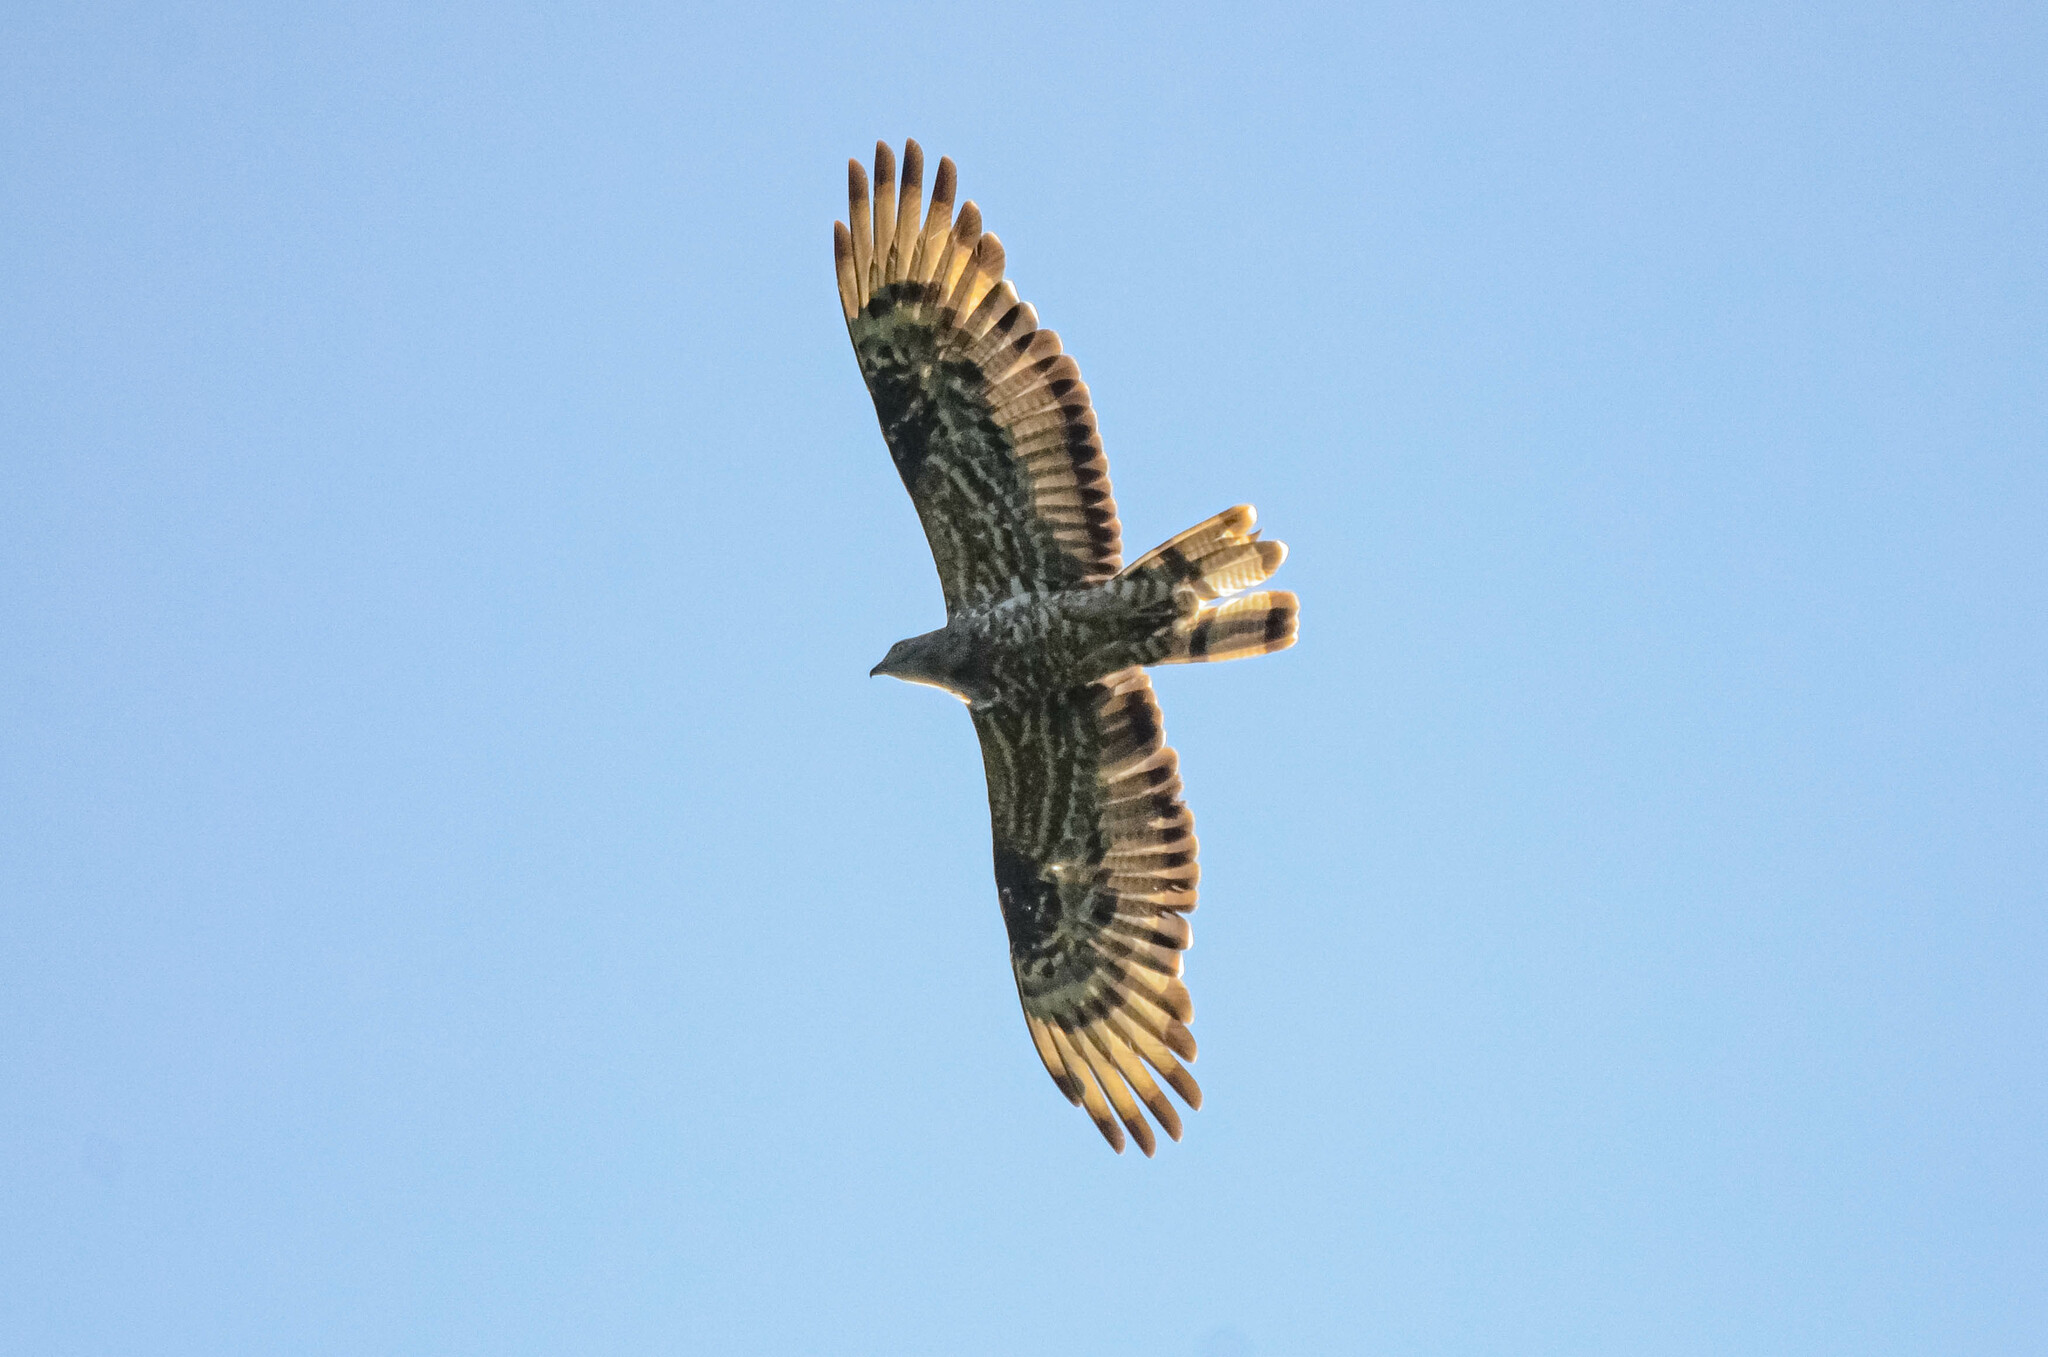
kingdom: Animalia
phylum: Chordata
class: Aves
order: Accipitriformes
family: Accipitridae
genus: Pernis
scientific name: Pernis apivorus
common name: European honey buzzard
